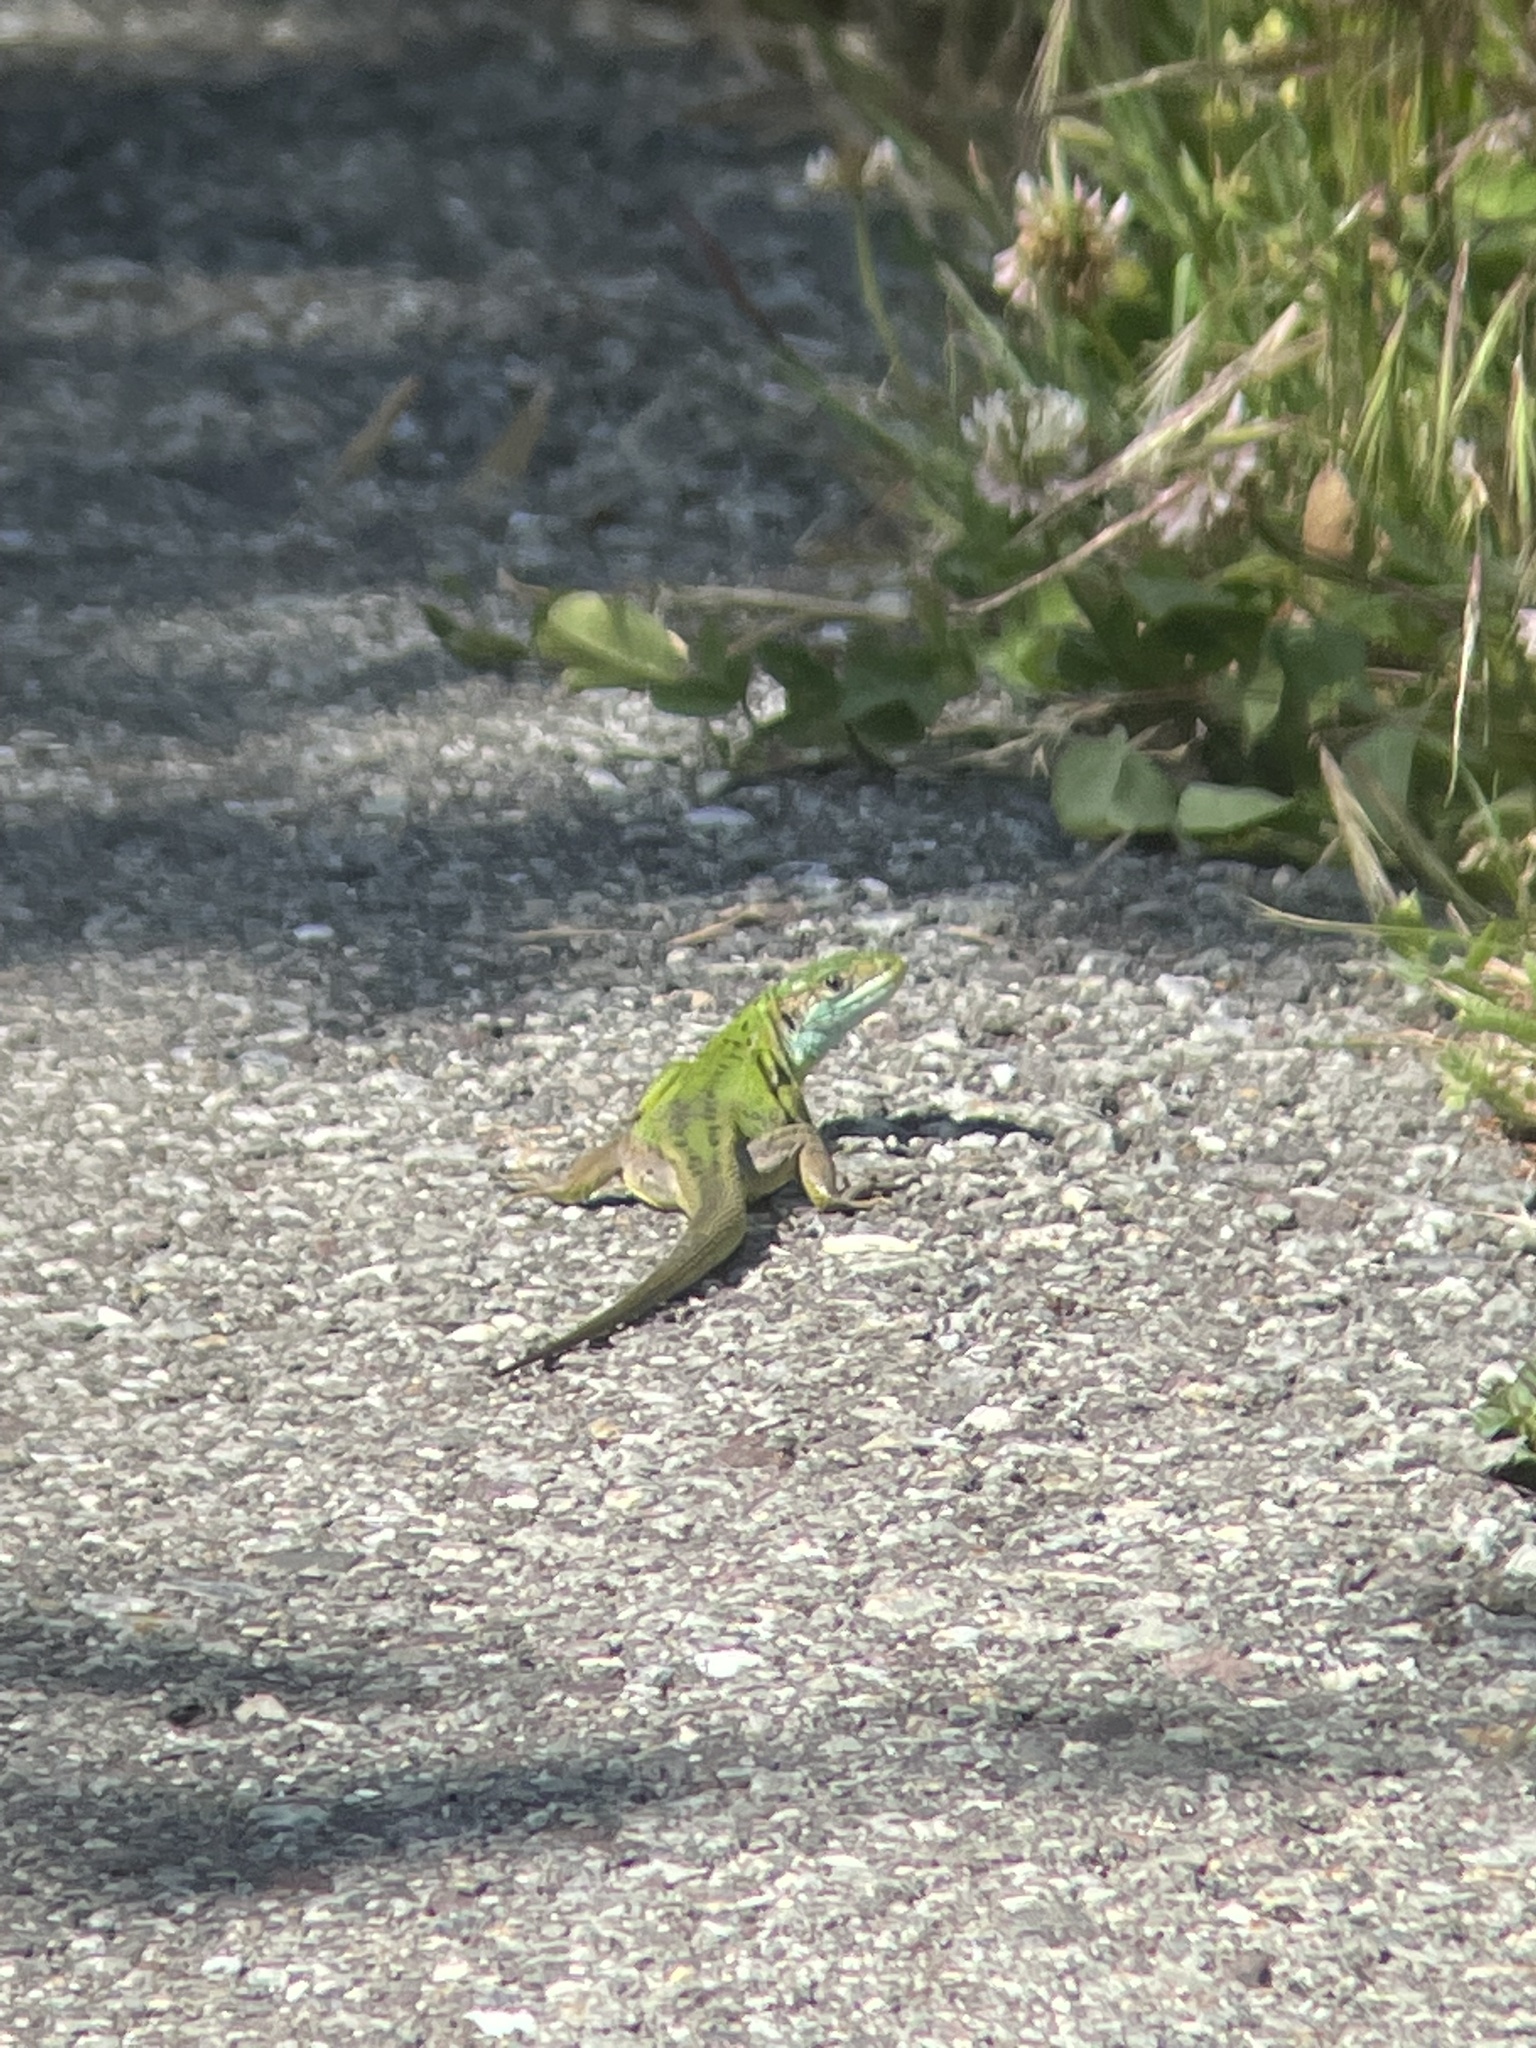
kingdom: Animalia
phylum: Chordata
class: Squamata
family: Lacertidae
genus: Lacerta
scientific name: Lacerta bilineata
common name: Western green lizard
